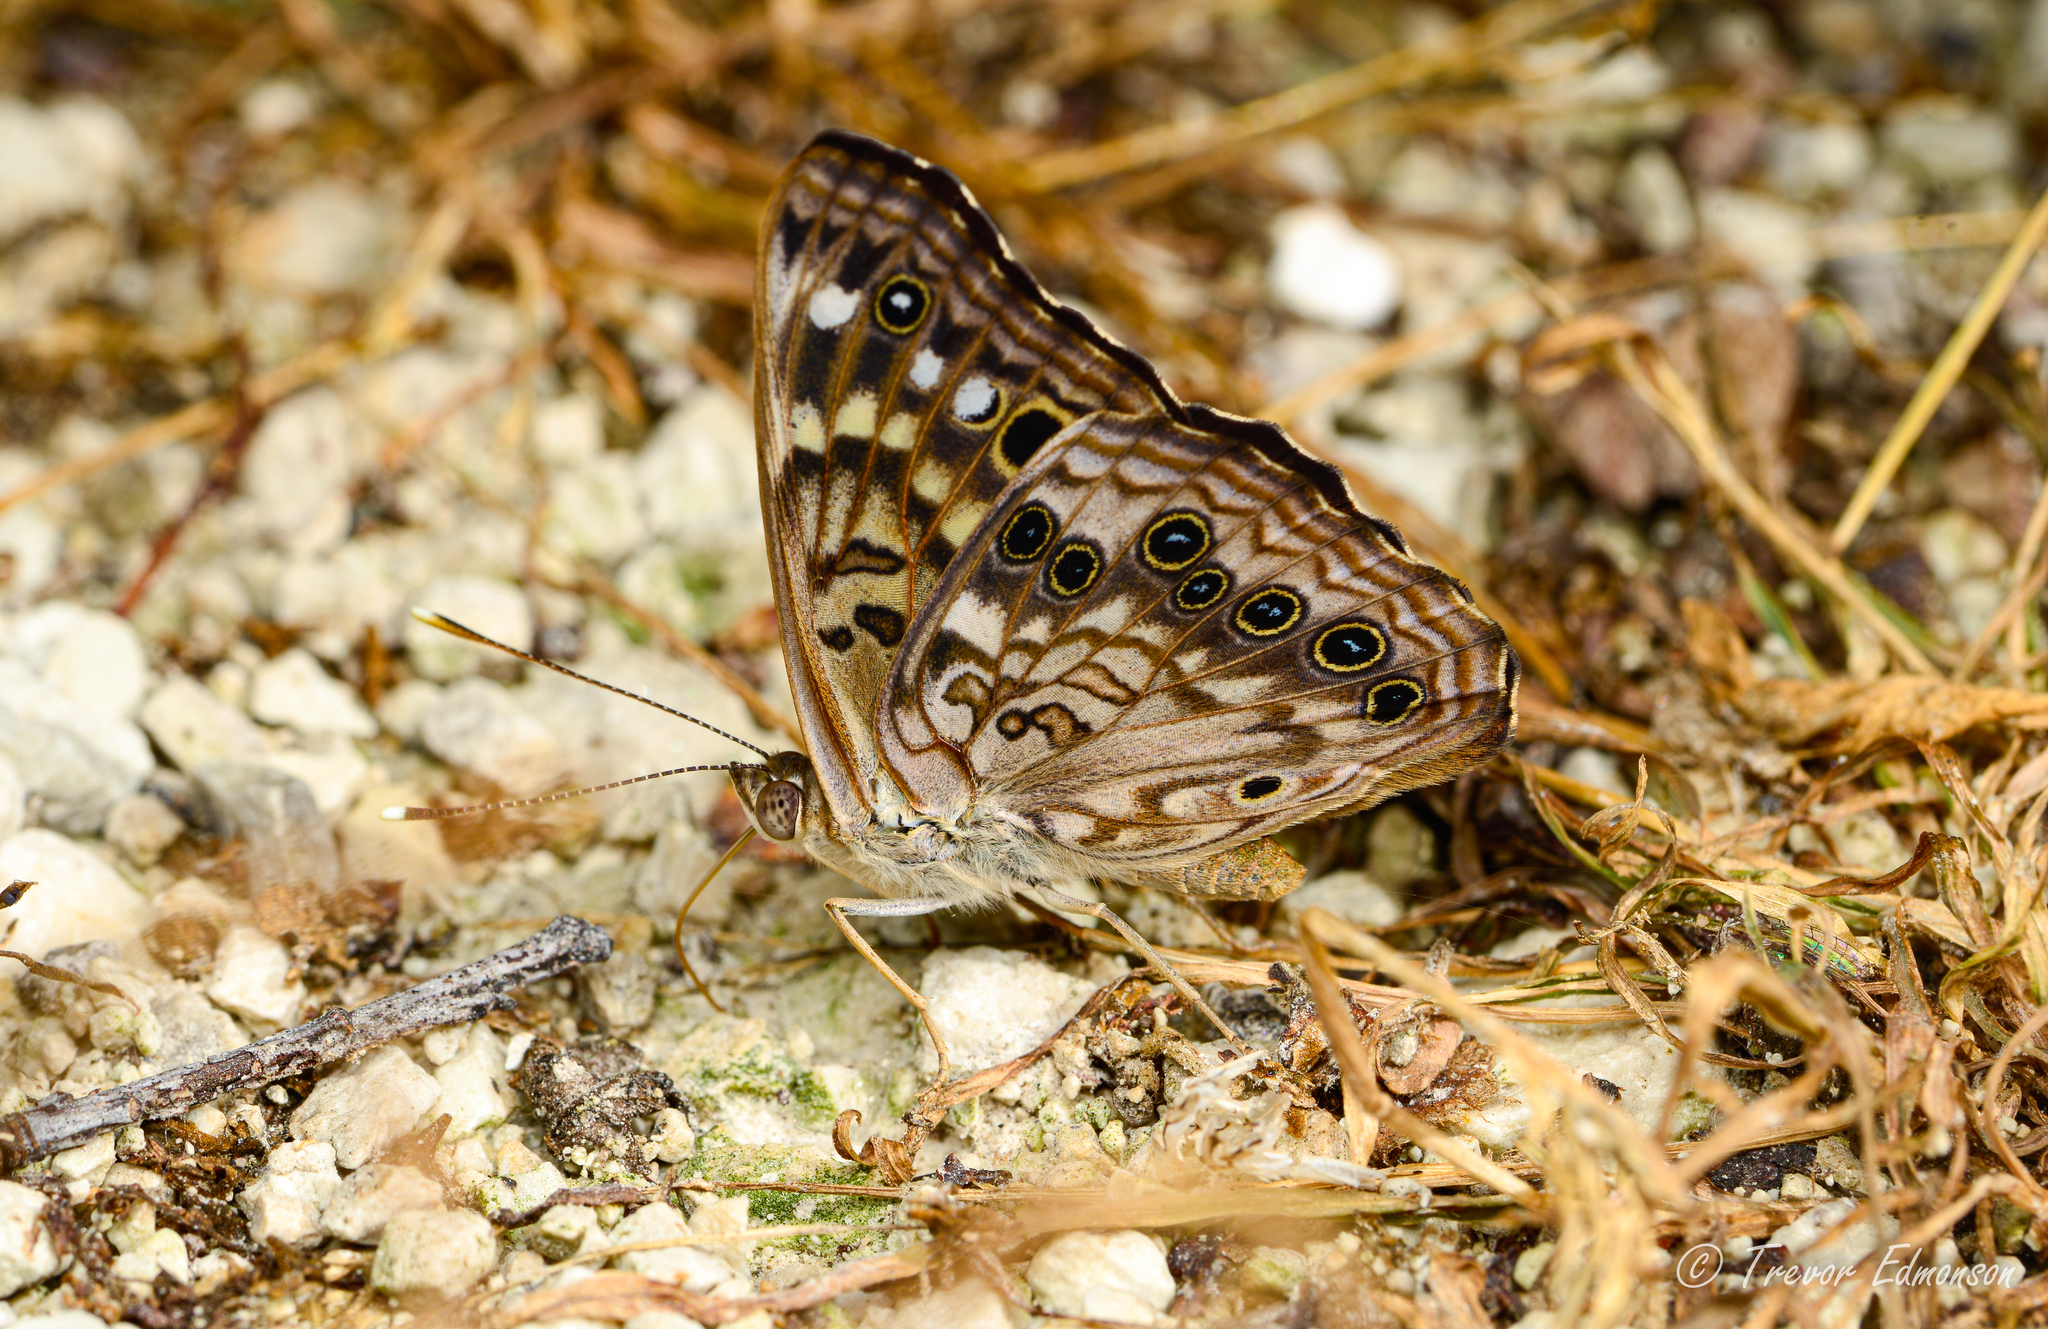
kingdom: Animalia
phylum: Arthropoda
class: Insecta
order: Lepidoptera
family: Nymphalidae
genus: Asterocampa
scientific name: Asterocampa celtis
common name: Hackberry emperor
